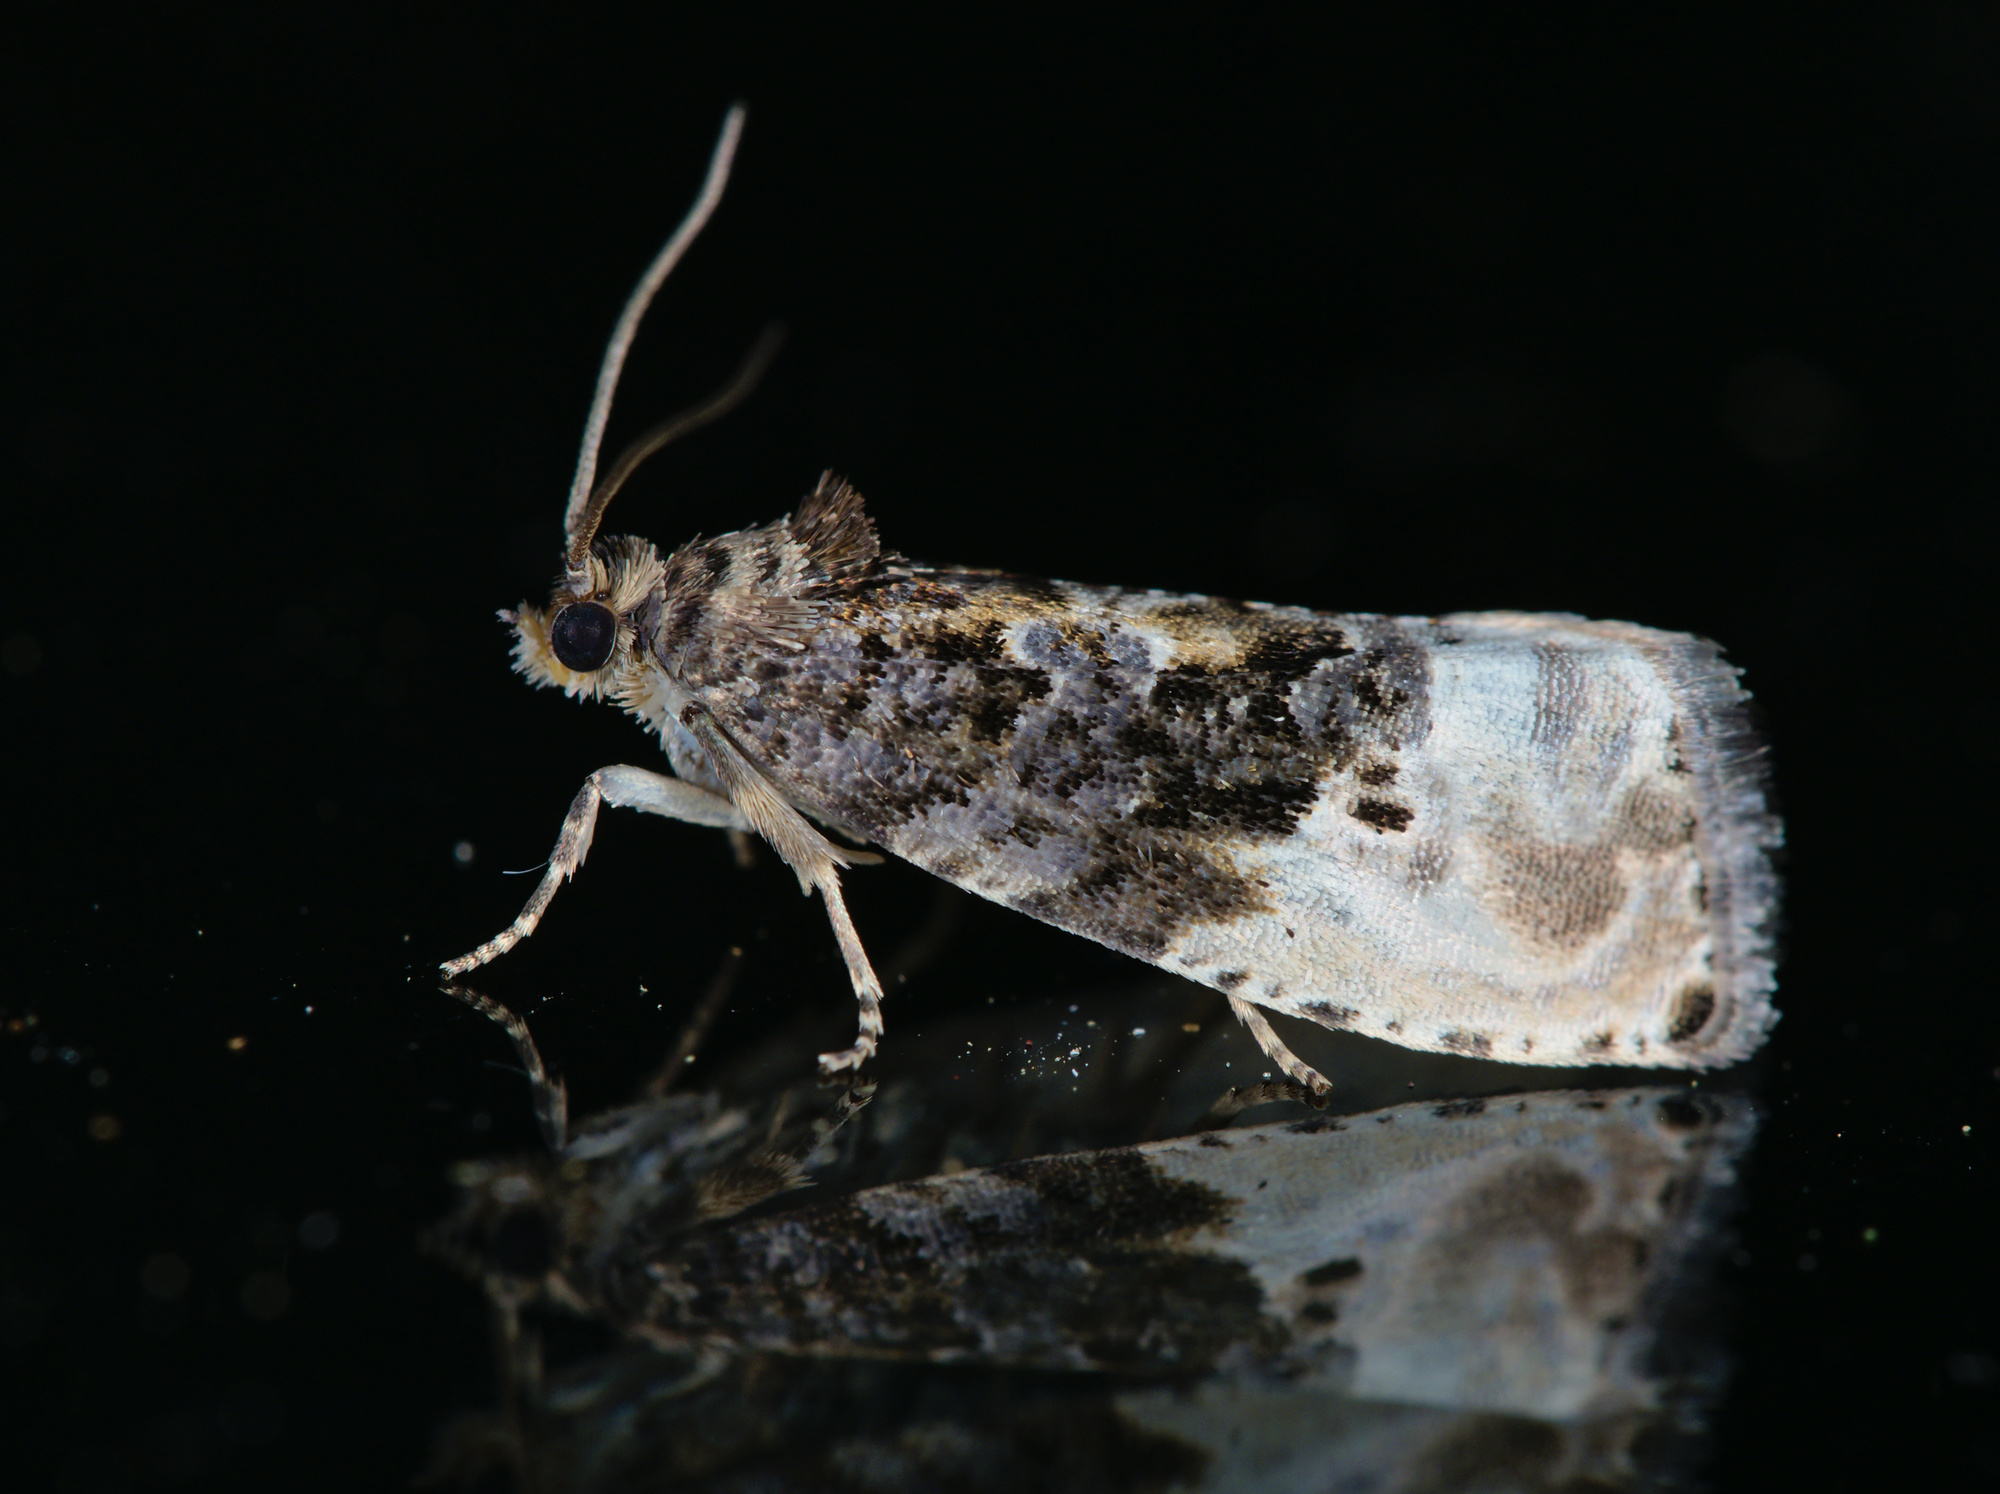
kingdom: Animalia
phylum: Arthropoda
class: Insecta
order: Lepidoptera
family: Tortricidae
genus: Hedya
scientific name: Hedya nubiferana
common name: Marbled orchard tortrix
